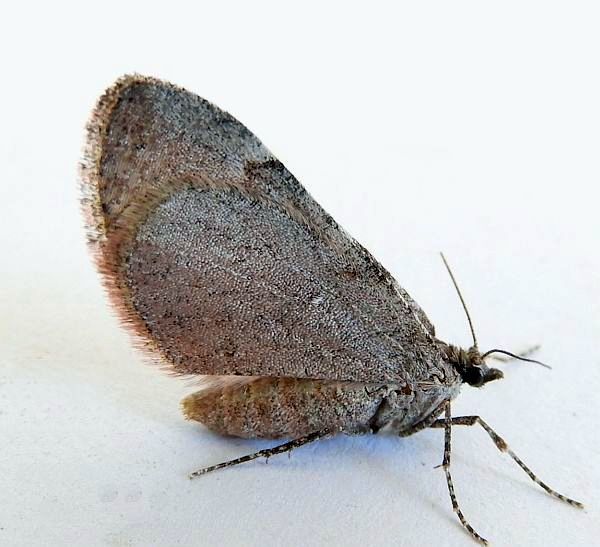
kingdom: Animalia
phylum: Arthropoda
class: Insecta
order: Lepidoptera
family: Geometridae
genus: Stamnoctenis
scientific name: Stamnoctenis rubrosuffusa
